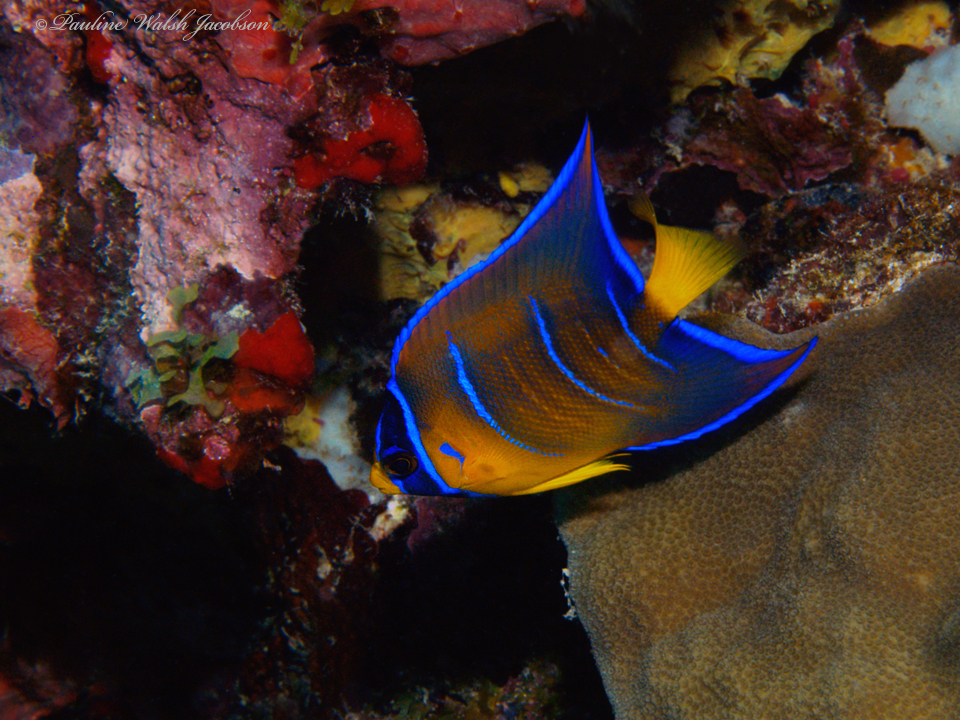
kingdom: Animalia
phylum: Chordata
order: Perciformes
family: Pomacanthidae
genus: Holacanthus
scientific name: Holacanthus ciliaris
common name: Queen angelfish
